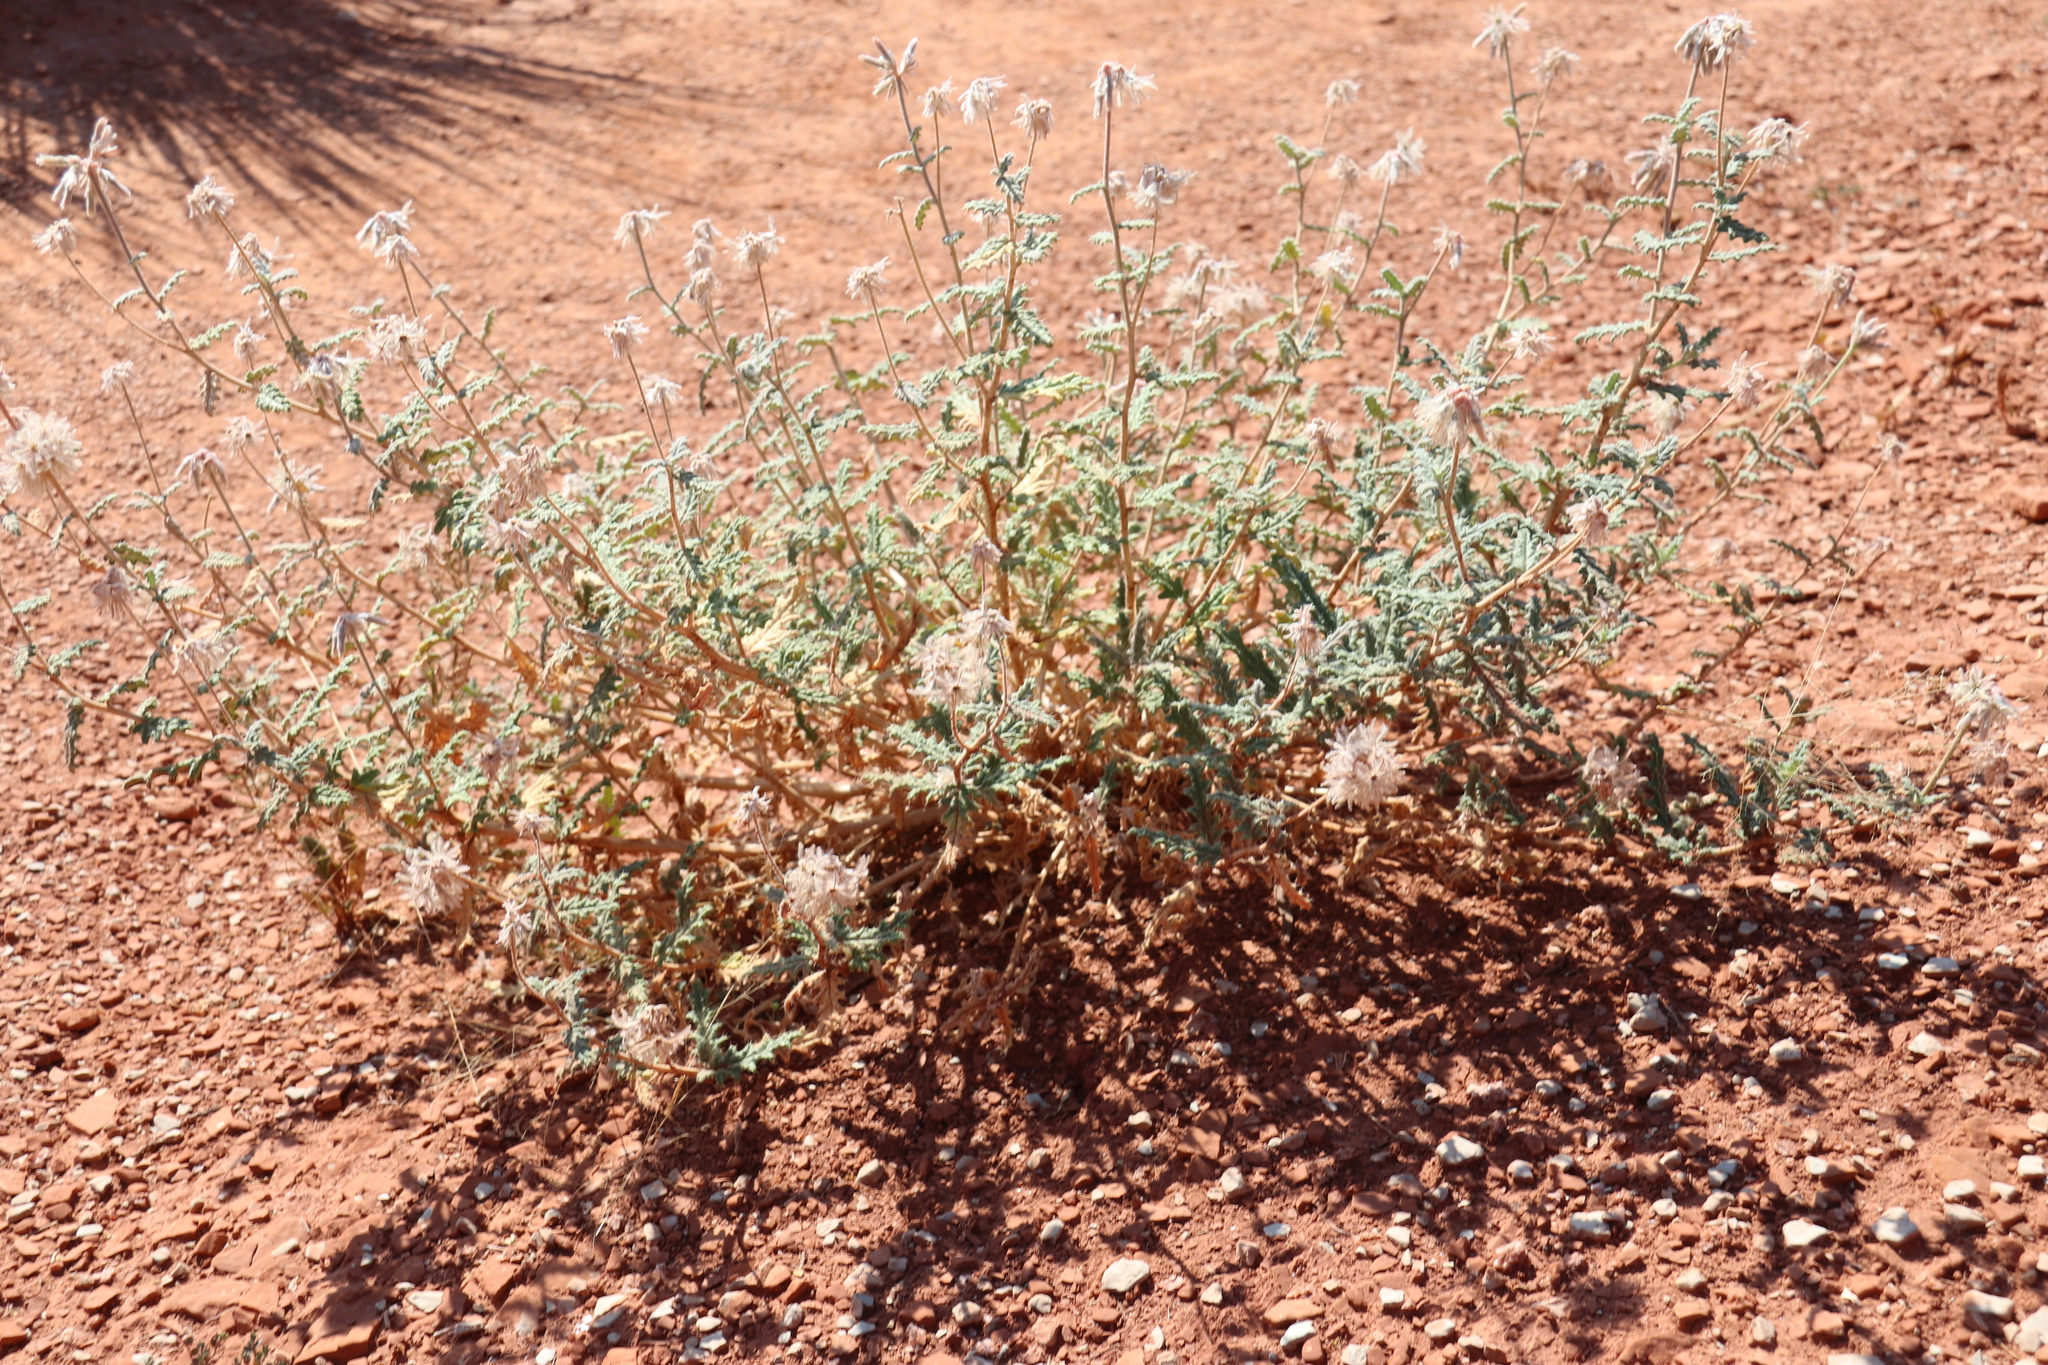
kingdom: Plantae
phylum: Tracheophyta
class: Magnoliopsida
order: Cornales
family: Loasaceae
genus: Cevallia
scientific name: Cevallia sinuata
